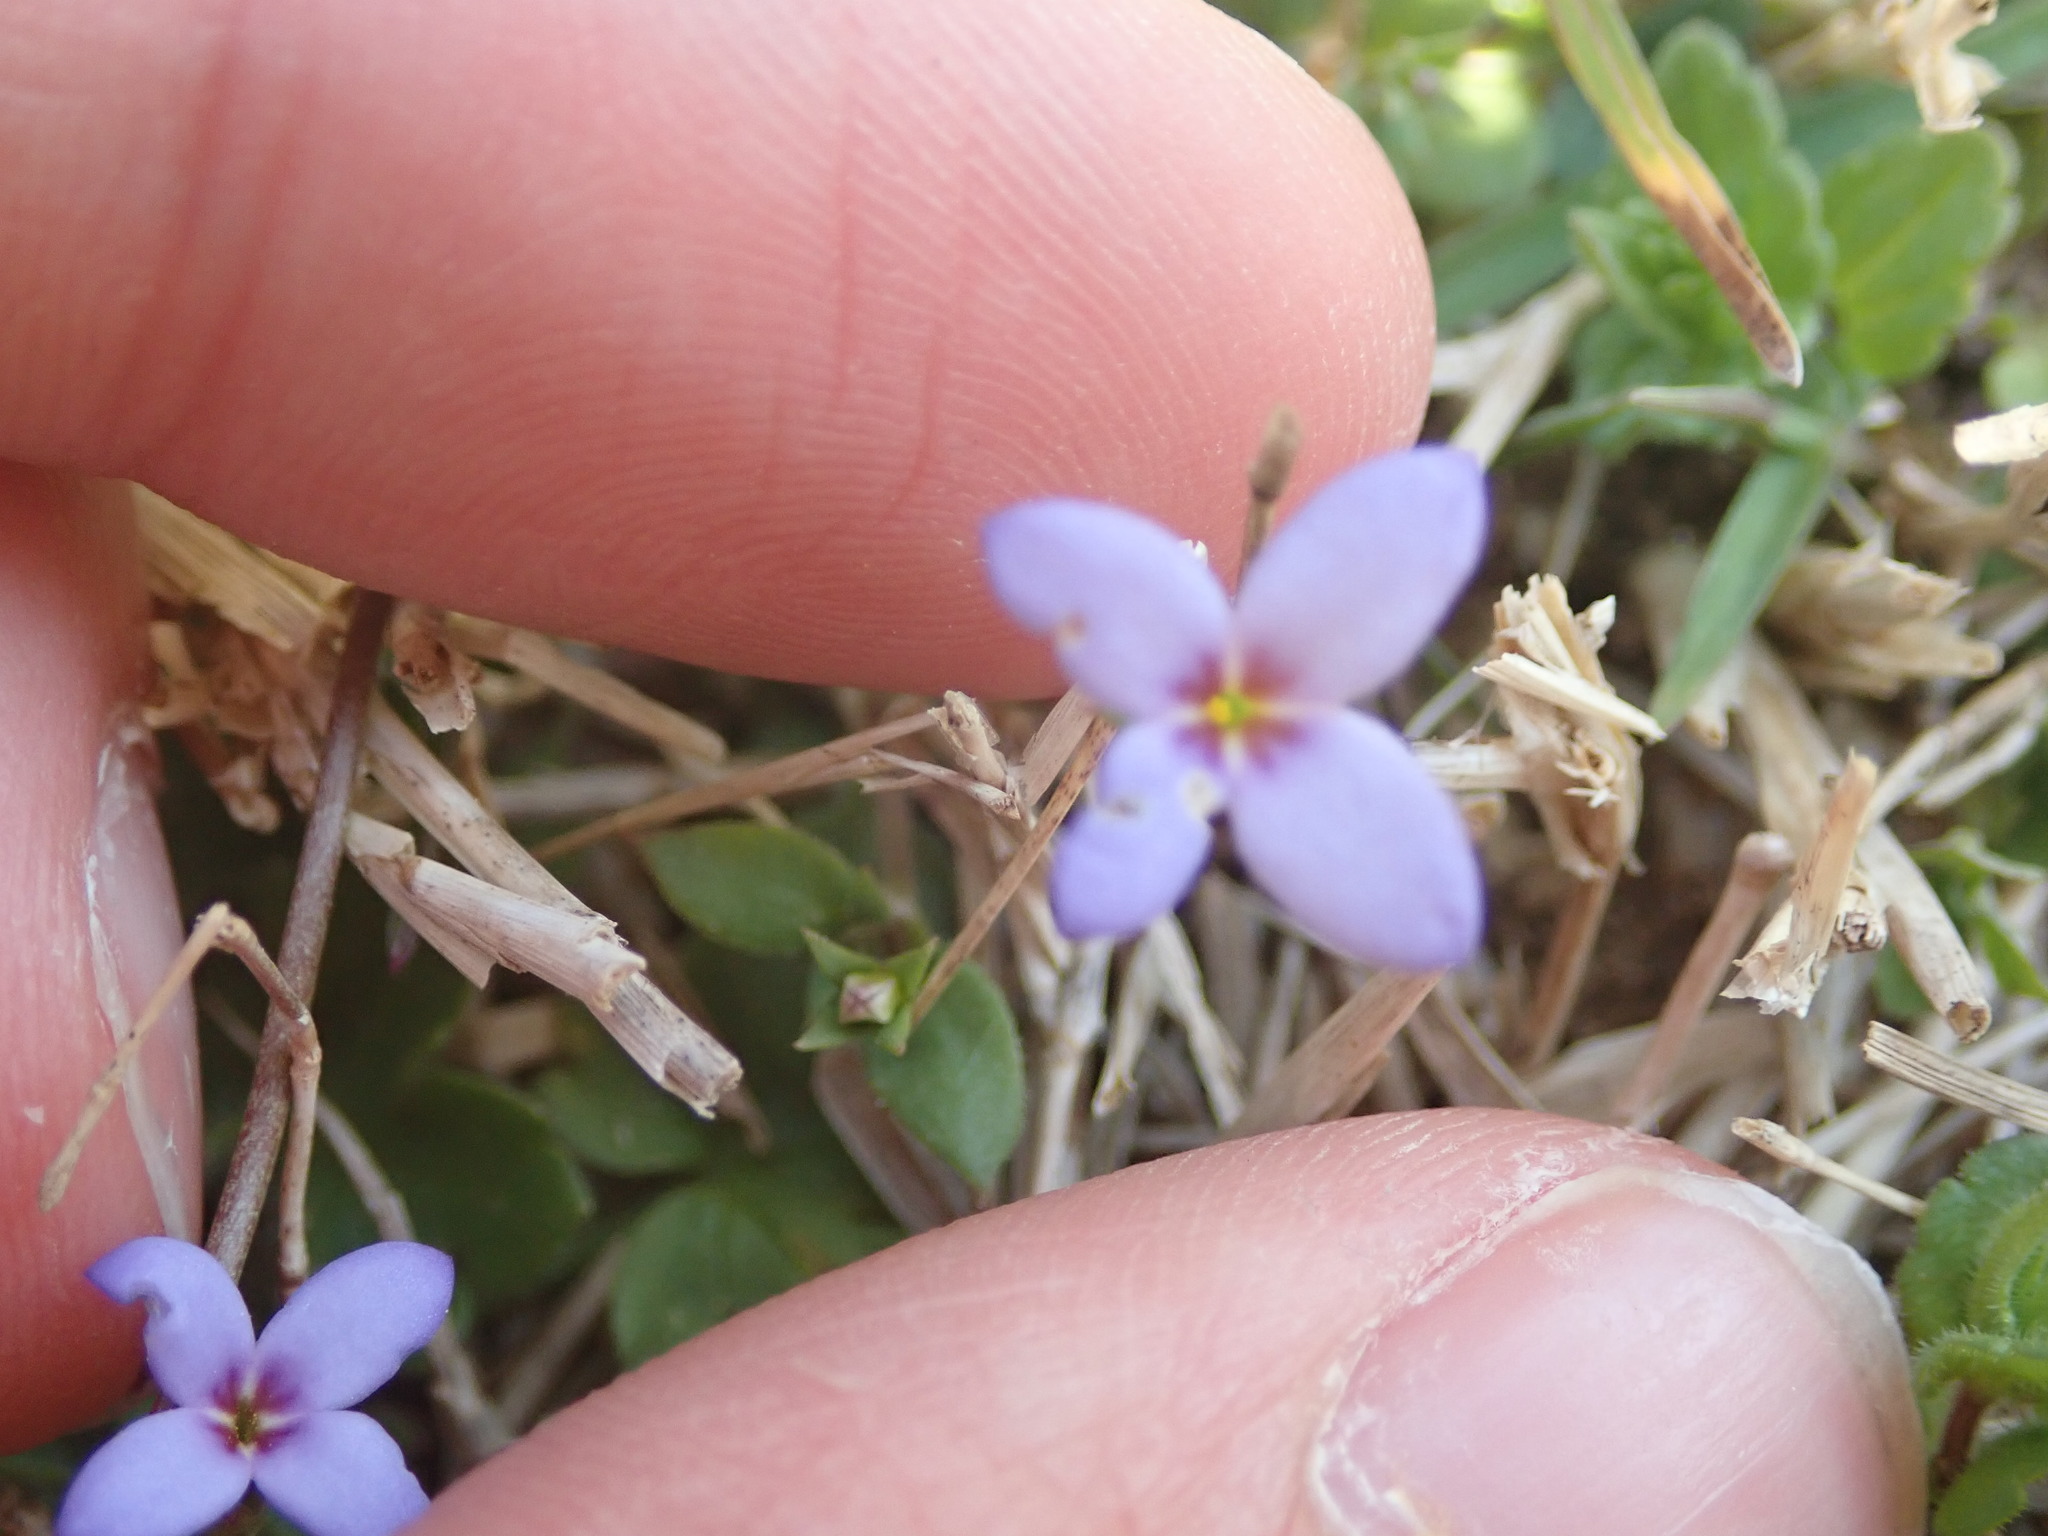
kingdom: Plantae
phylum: Tracheophyta
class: Magnoliopsida
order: Gentianales
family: Rubiaceae
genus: Houstonia
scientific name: Houstonia pusilla
